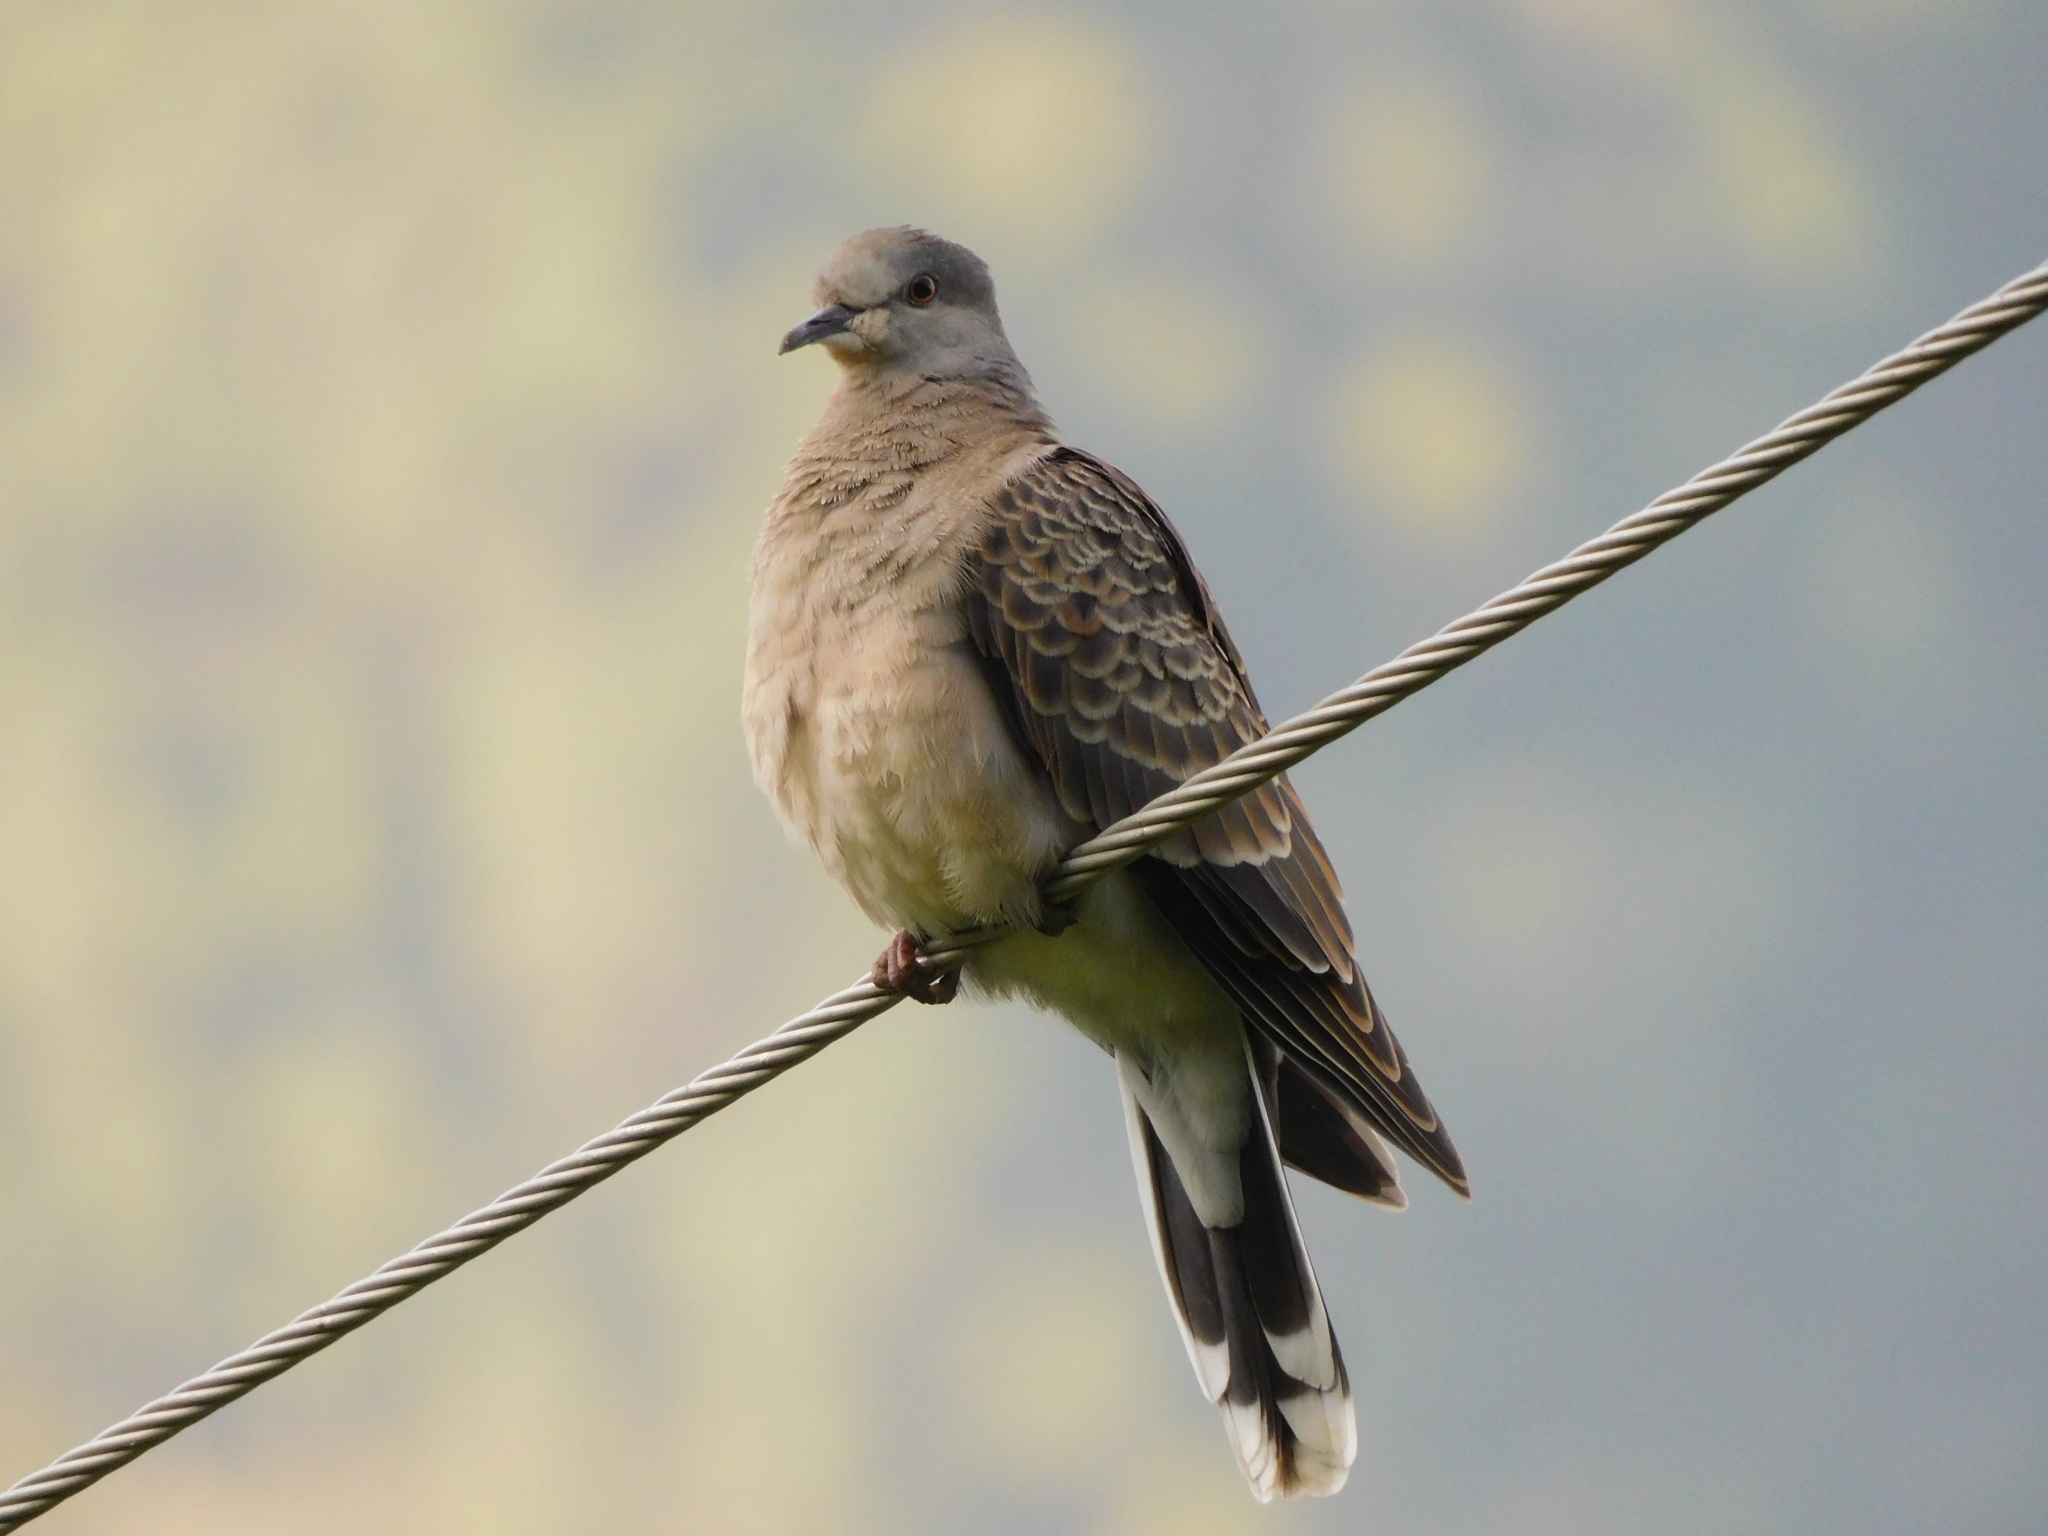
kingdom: Animalia
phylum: Chordata
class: Aves
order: Columbiformes
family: Columbidae
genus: Streptopelia
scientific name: Streptopelia orientalis
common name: Oriental turtle dove
